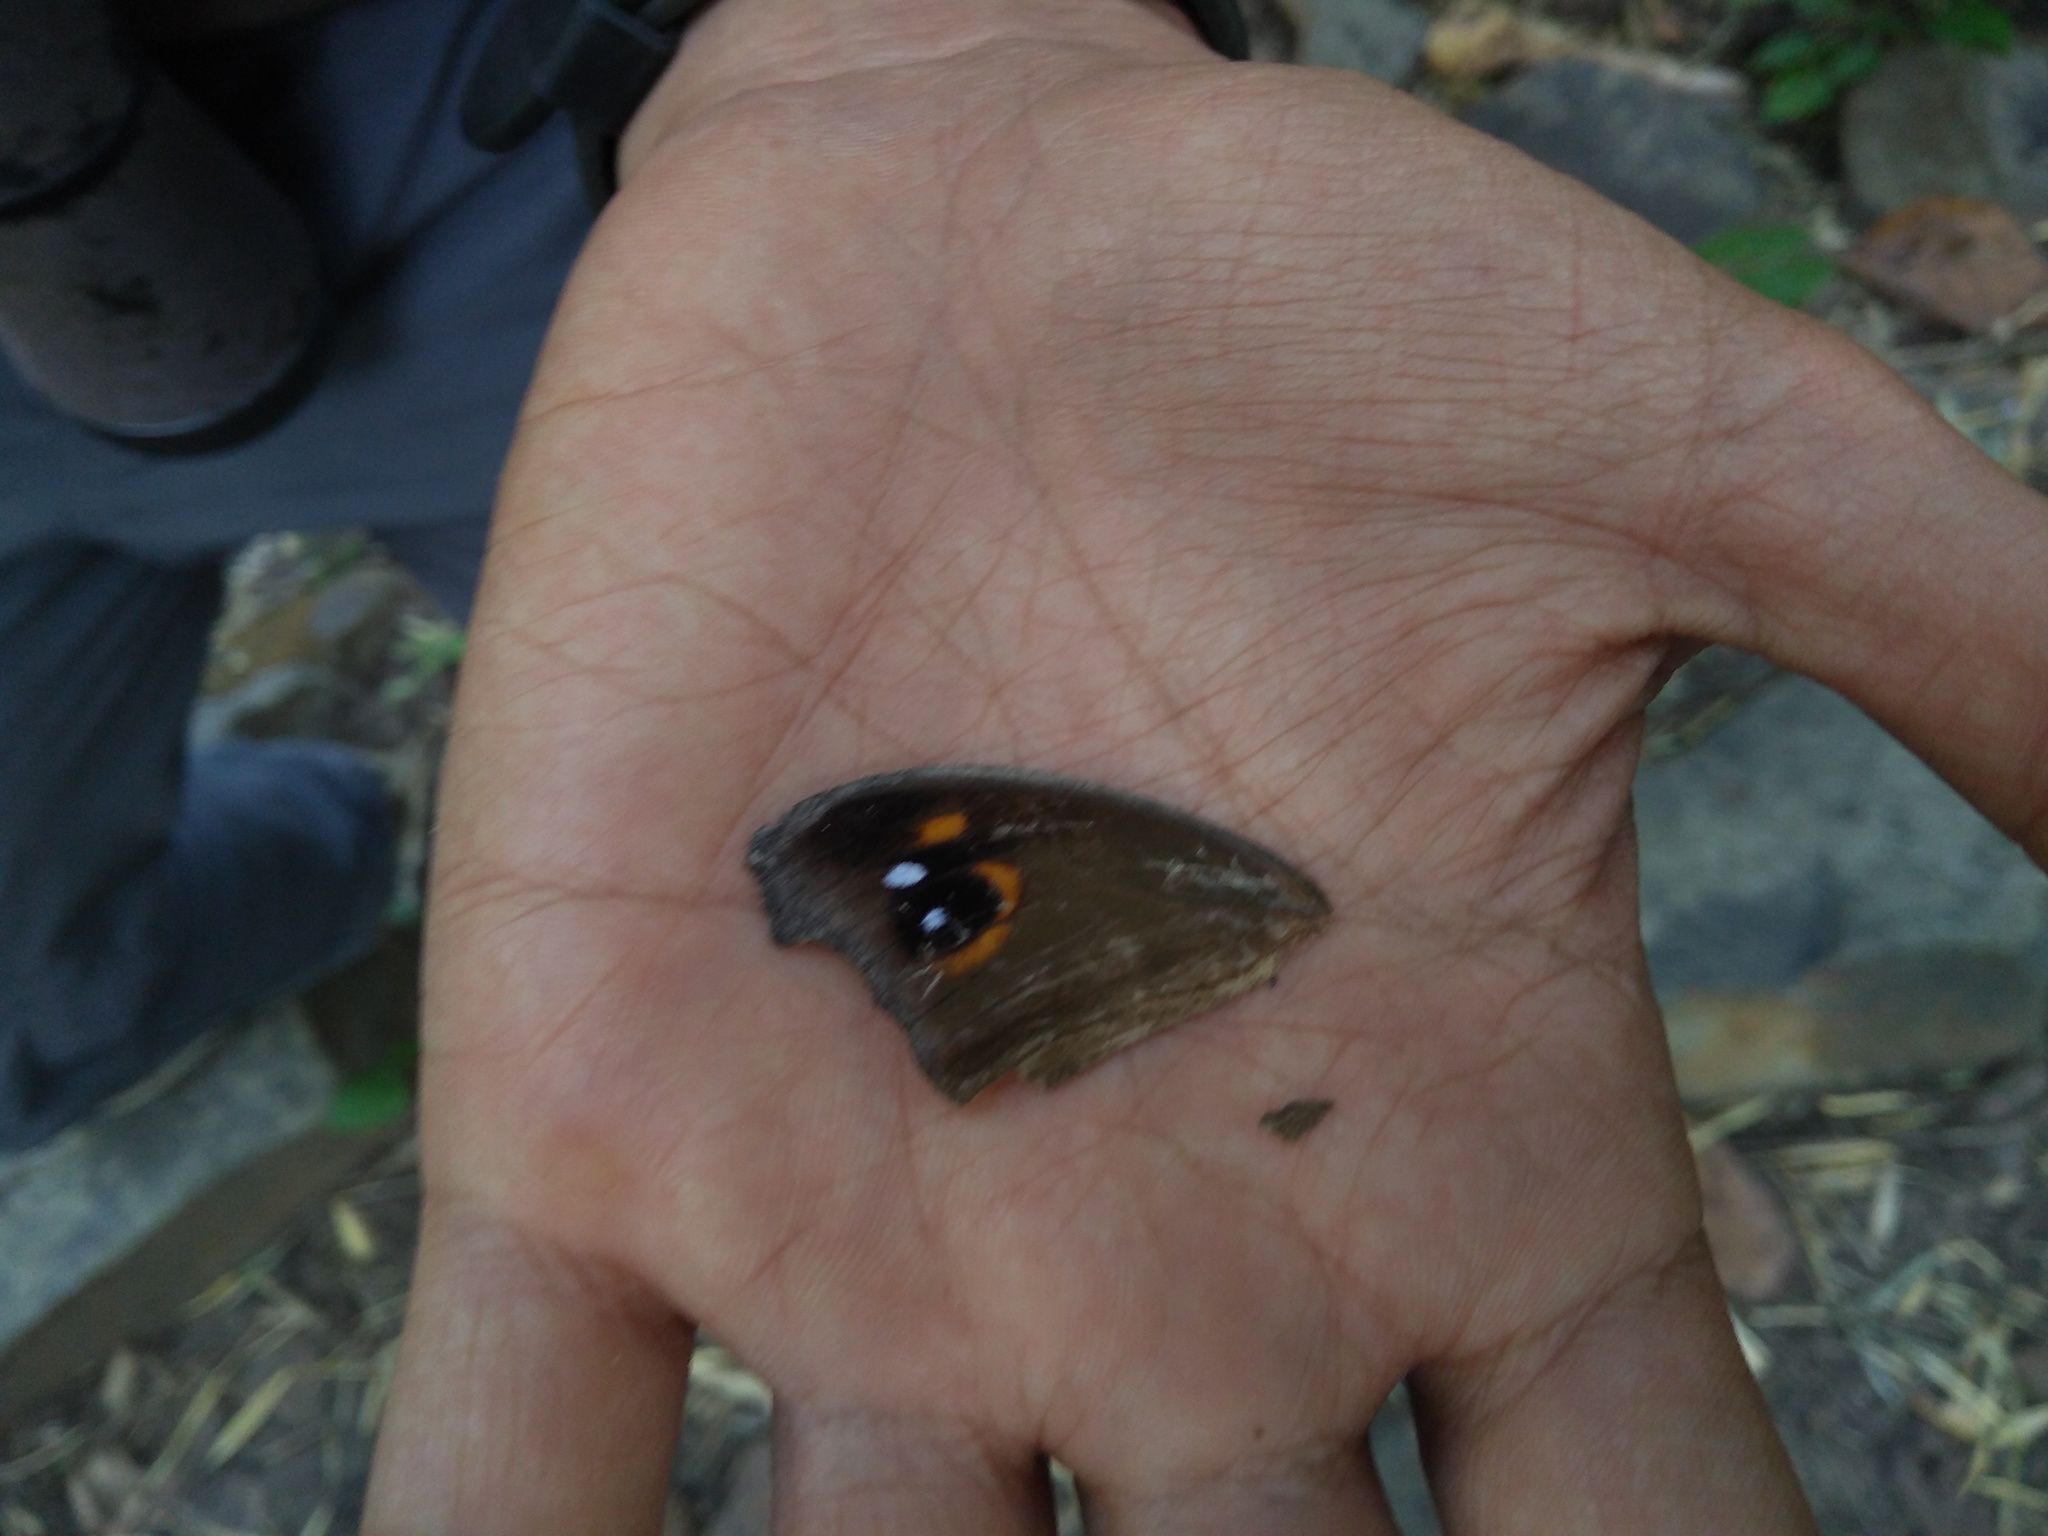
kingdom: Animalia
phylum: Arthropoda
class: Insecta
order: Lepidoptera
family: Nymphalidae
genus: Melanitis
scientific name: Melanitis leda
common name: Twilight brown
